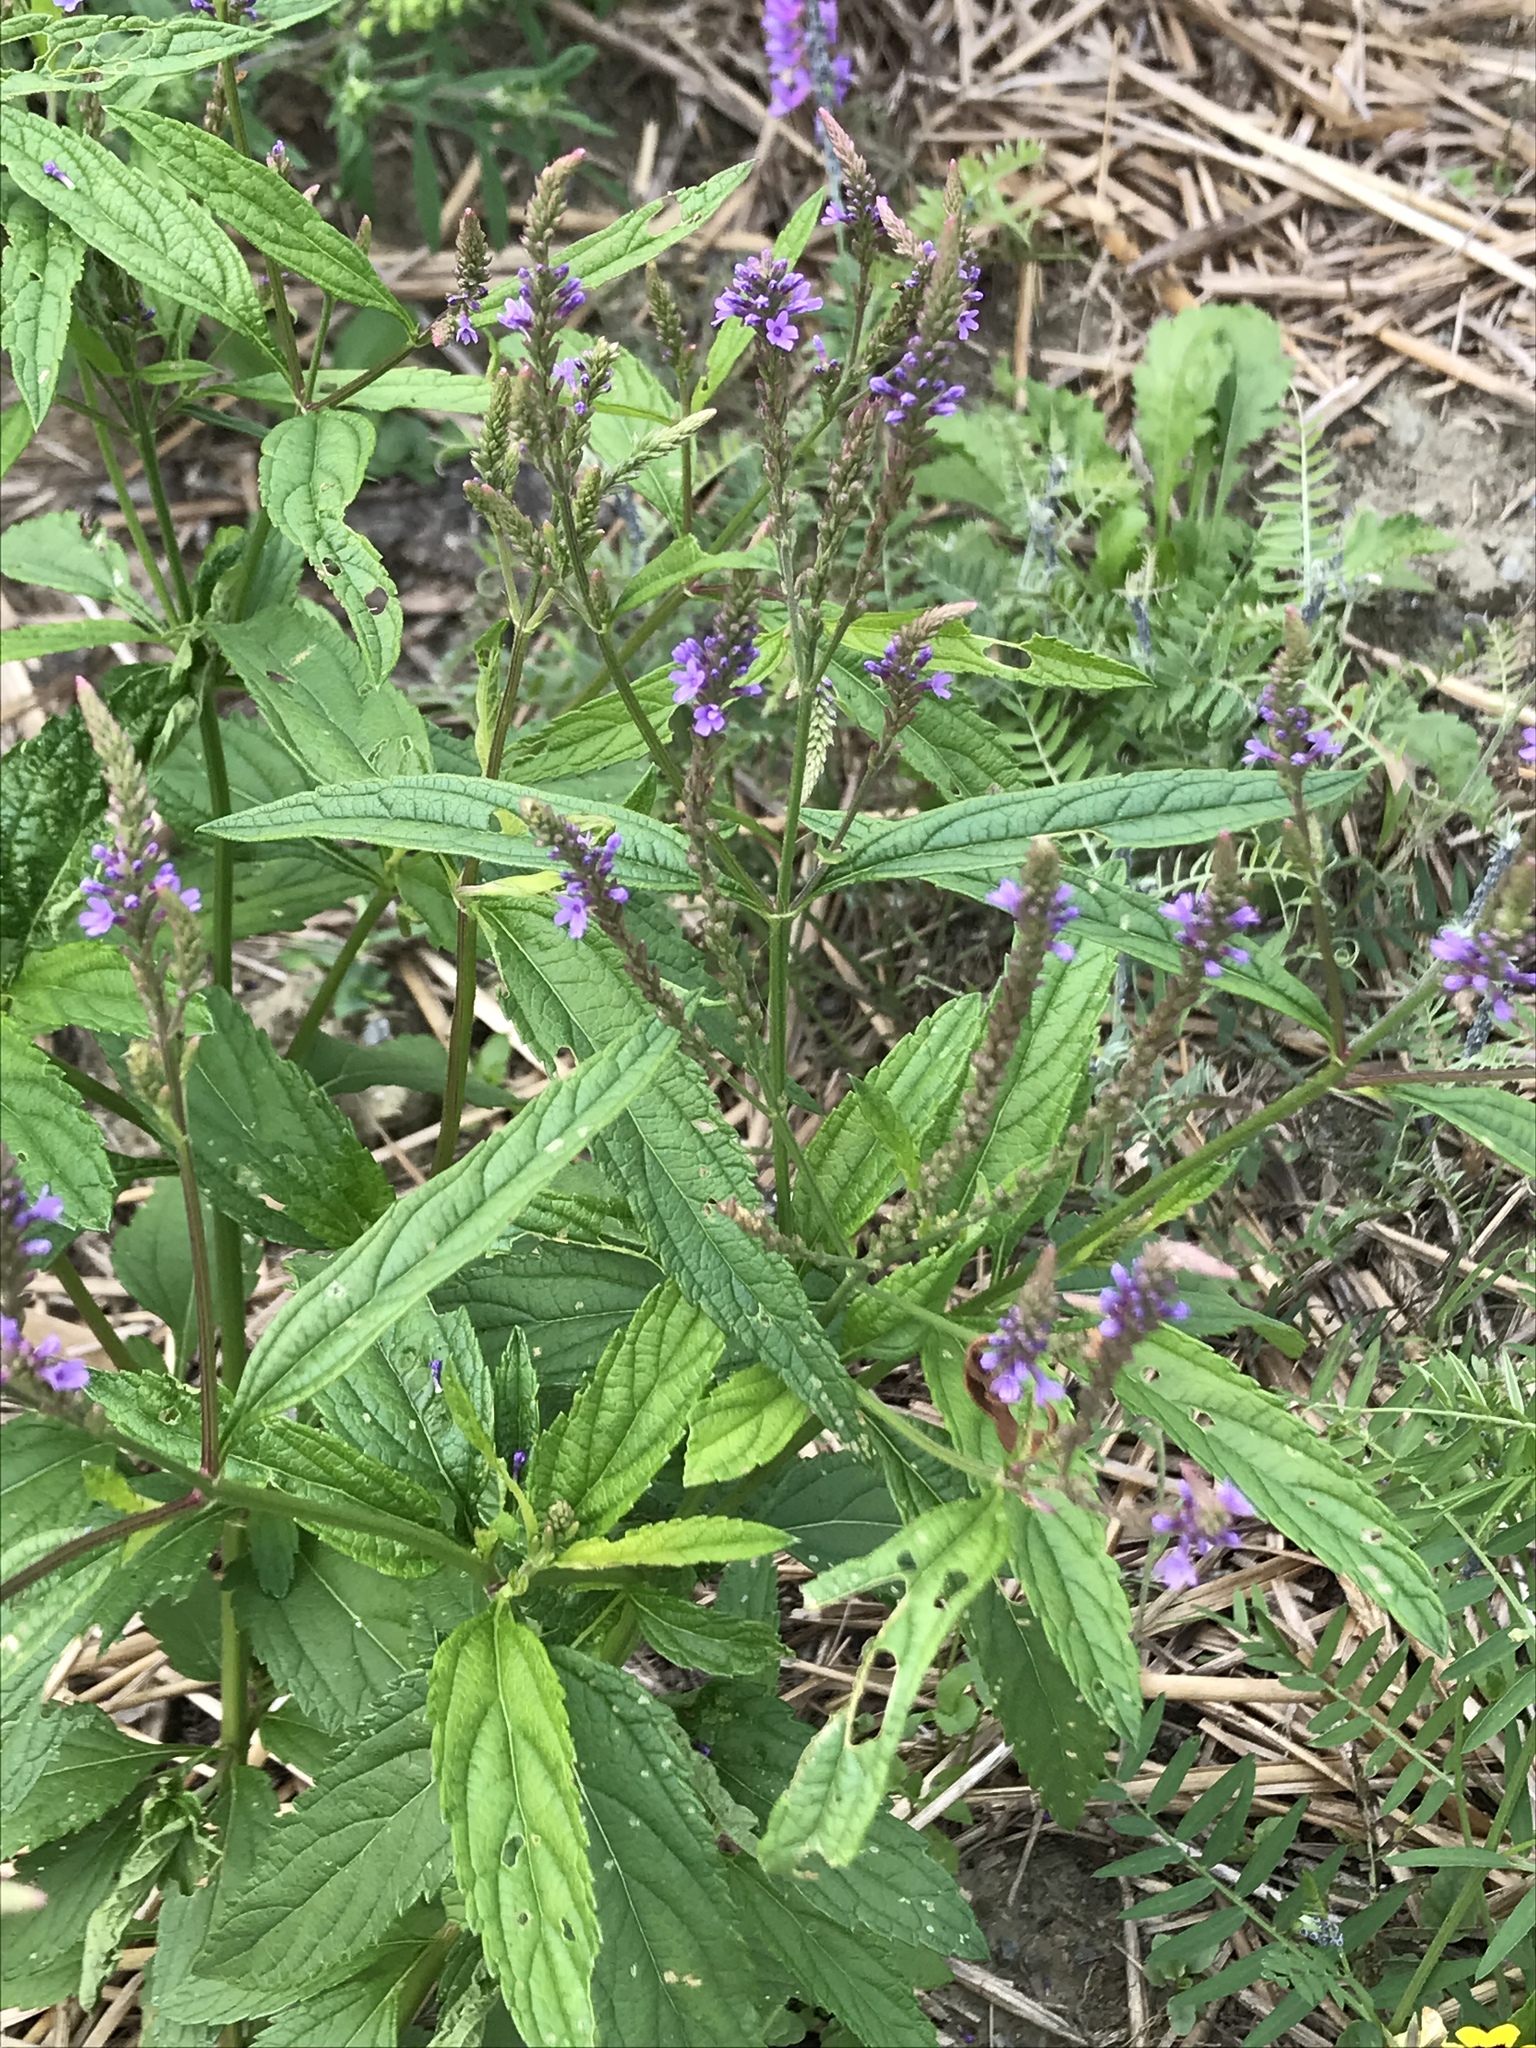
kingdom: Plantae
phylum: Tracheophyta
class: Magnoliopsida
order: Lamiales
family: Verbenaceae
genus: Verbena
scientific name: Verbena hastata
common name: American blue vervain
